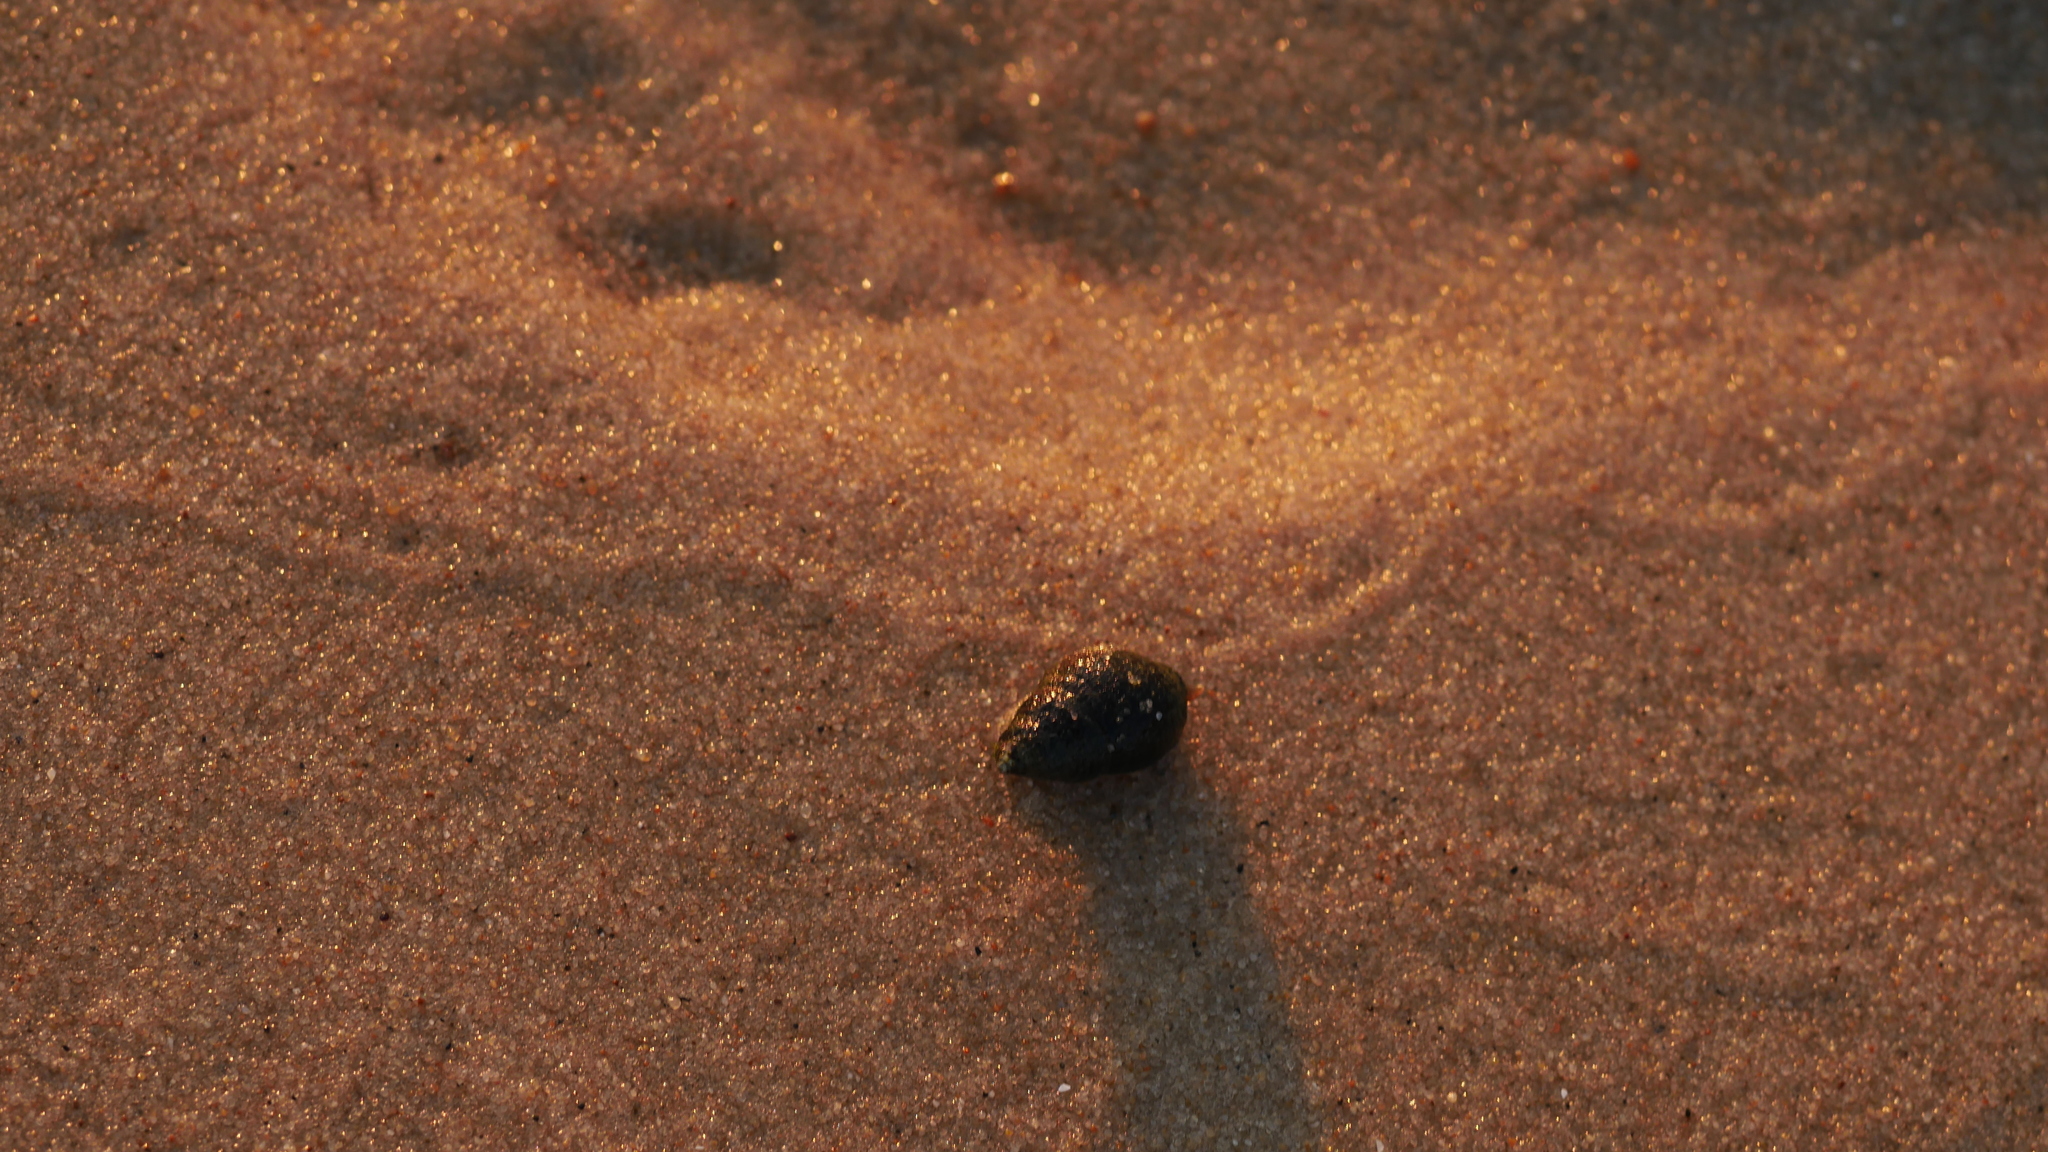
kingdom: Animalia
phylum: Mollusca
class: Gastropoda
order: Neogastropoda
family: Nassariidae
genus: Ilyanassa
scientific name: Ilyanassa obsoleta
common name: Eastern mudsnail
